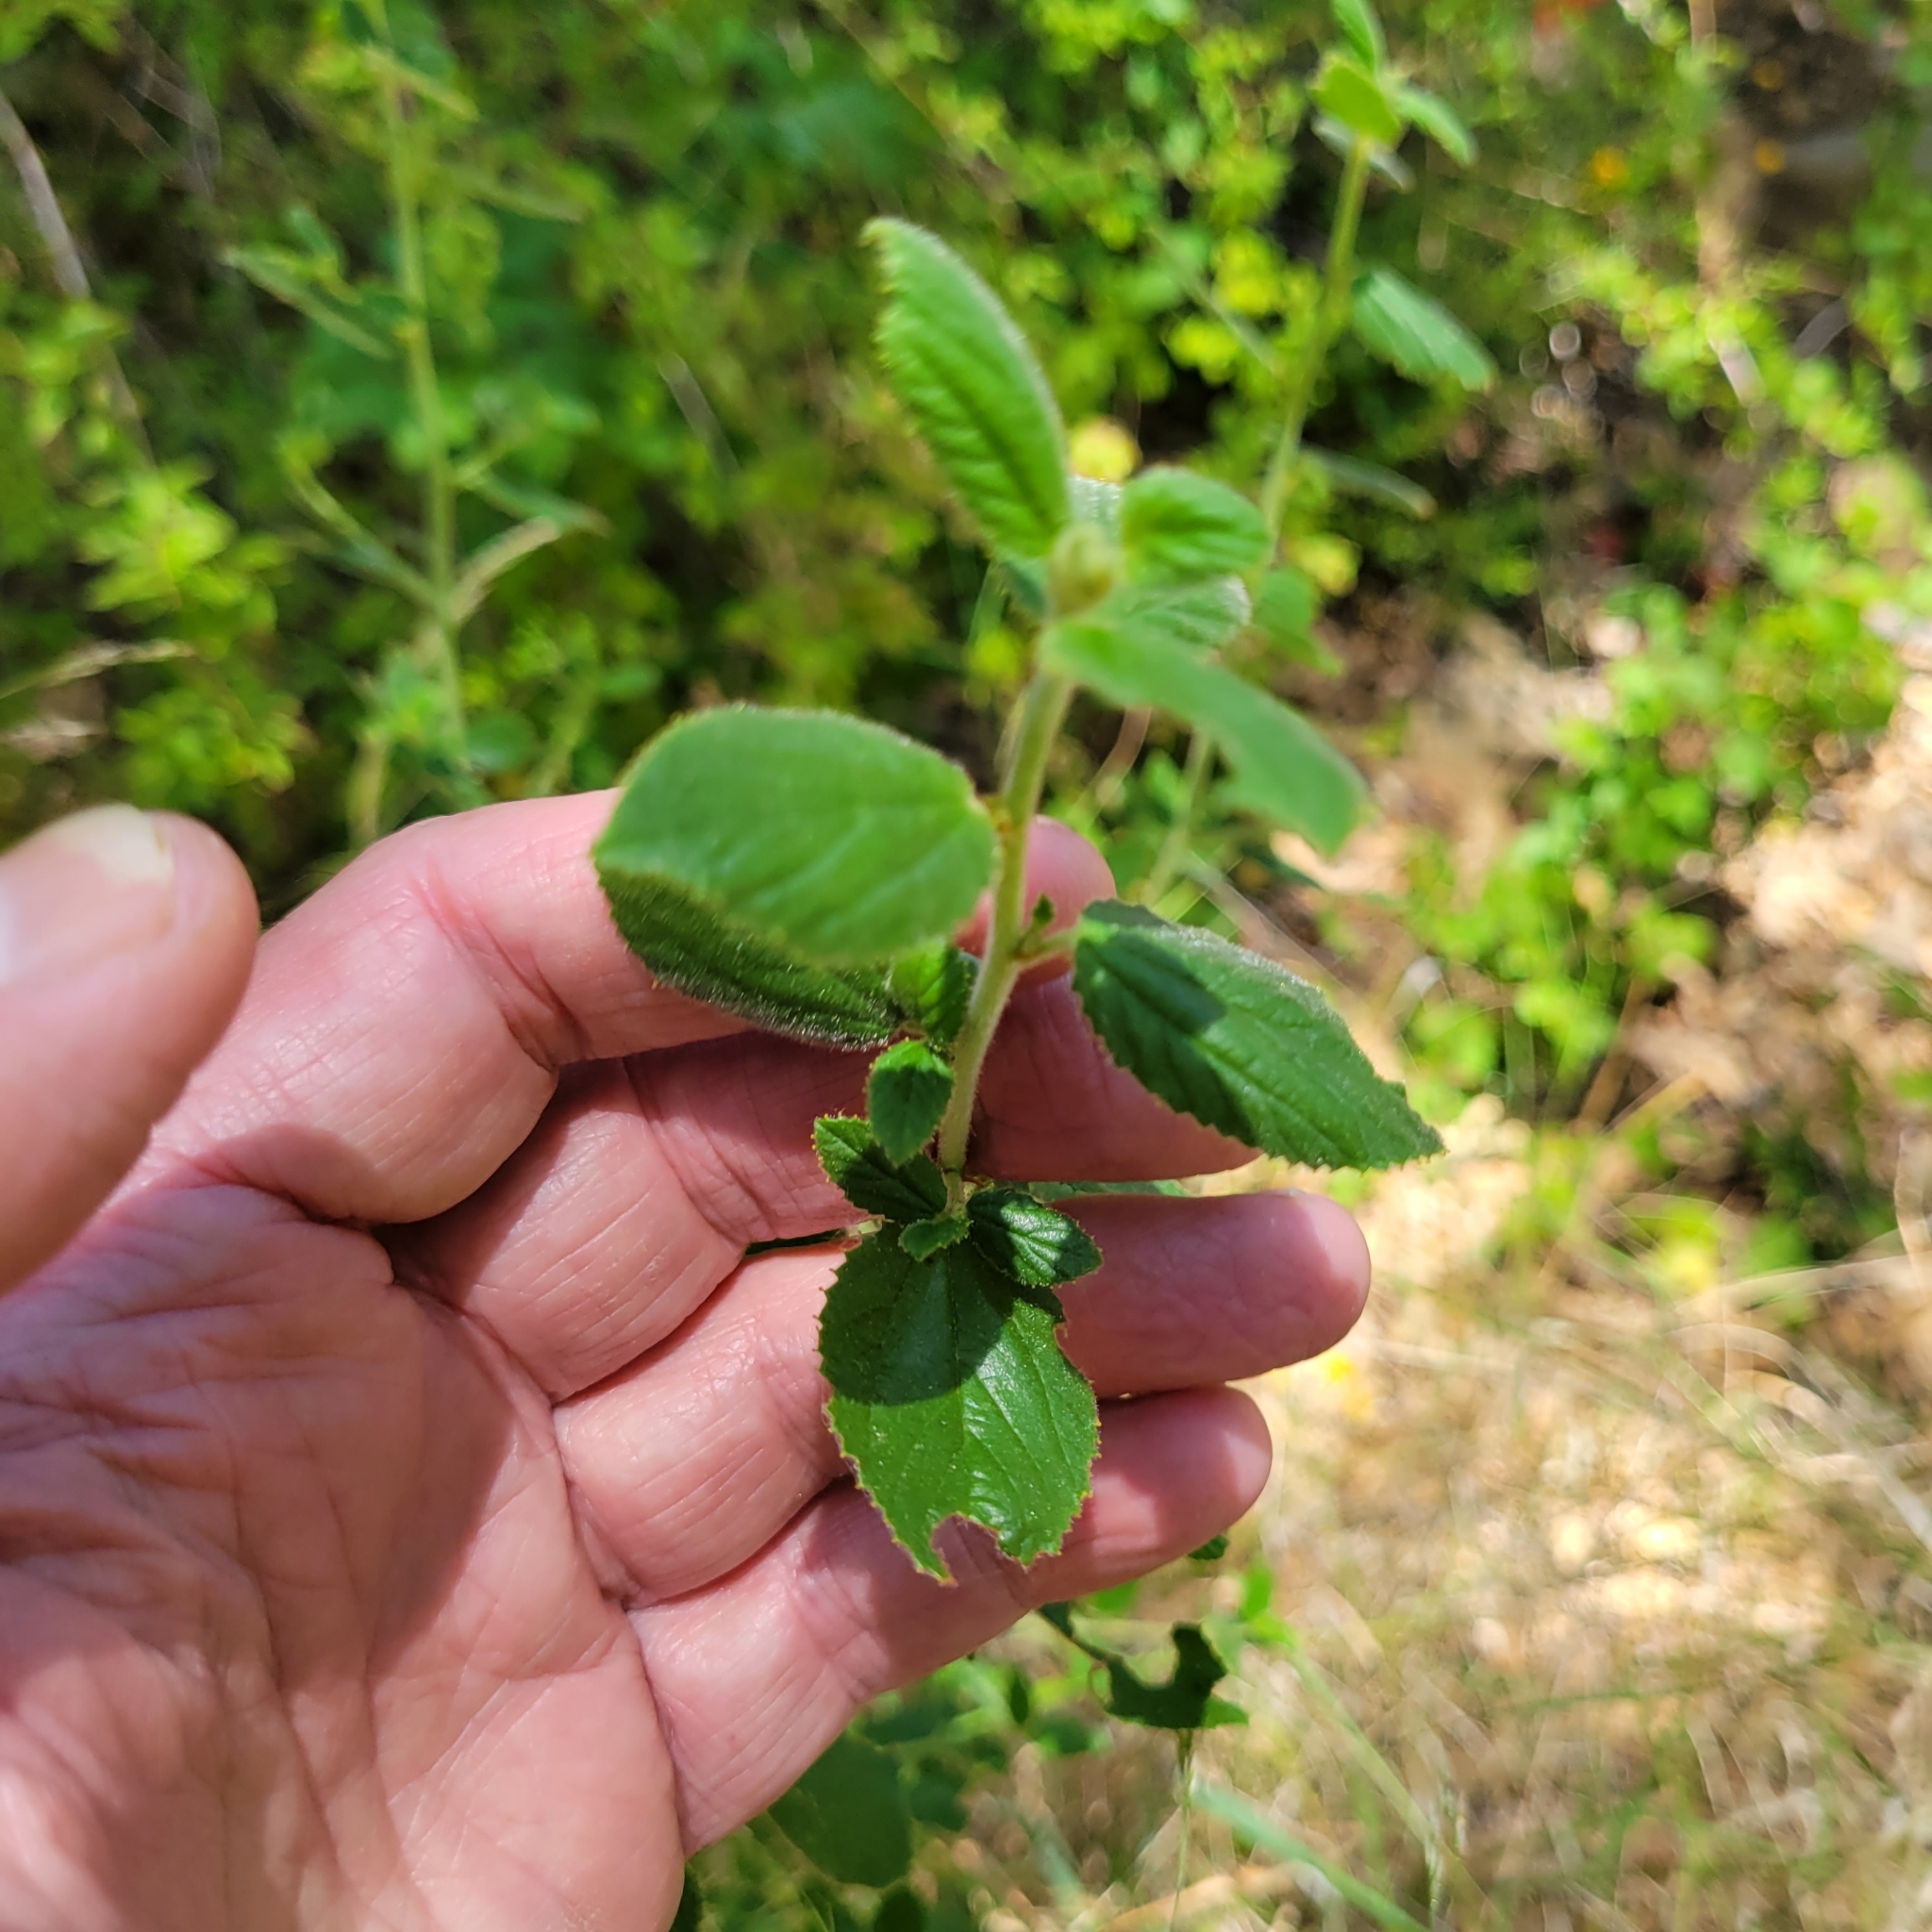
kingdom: Plantae
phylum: Tracheophyta
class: Magnoliopsida
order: Rosales
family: Rhamnaceae
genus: Ceanothus
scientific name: Ceanothus oliganthus
